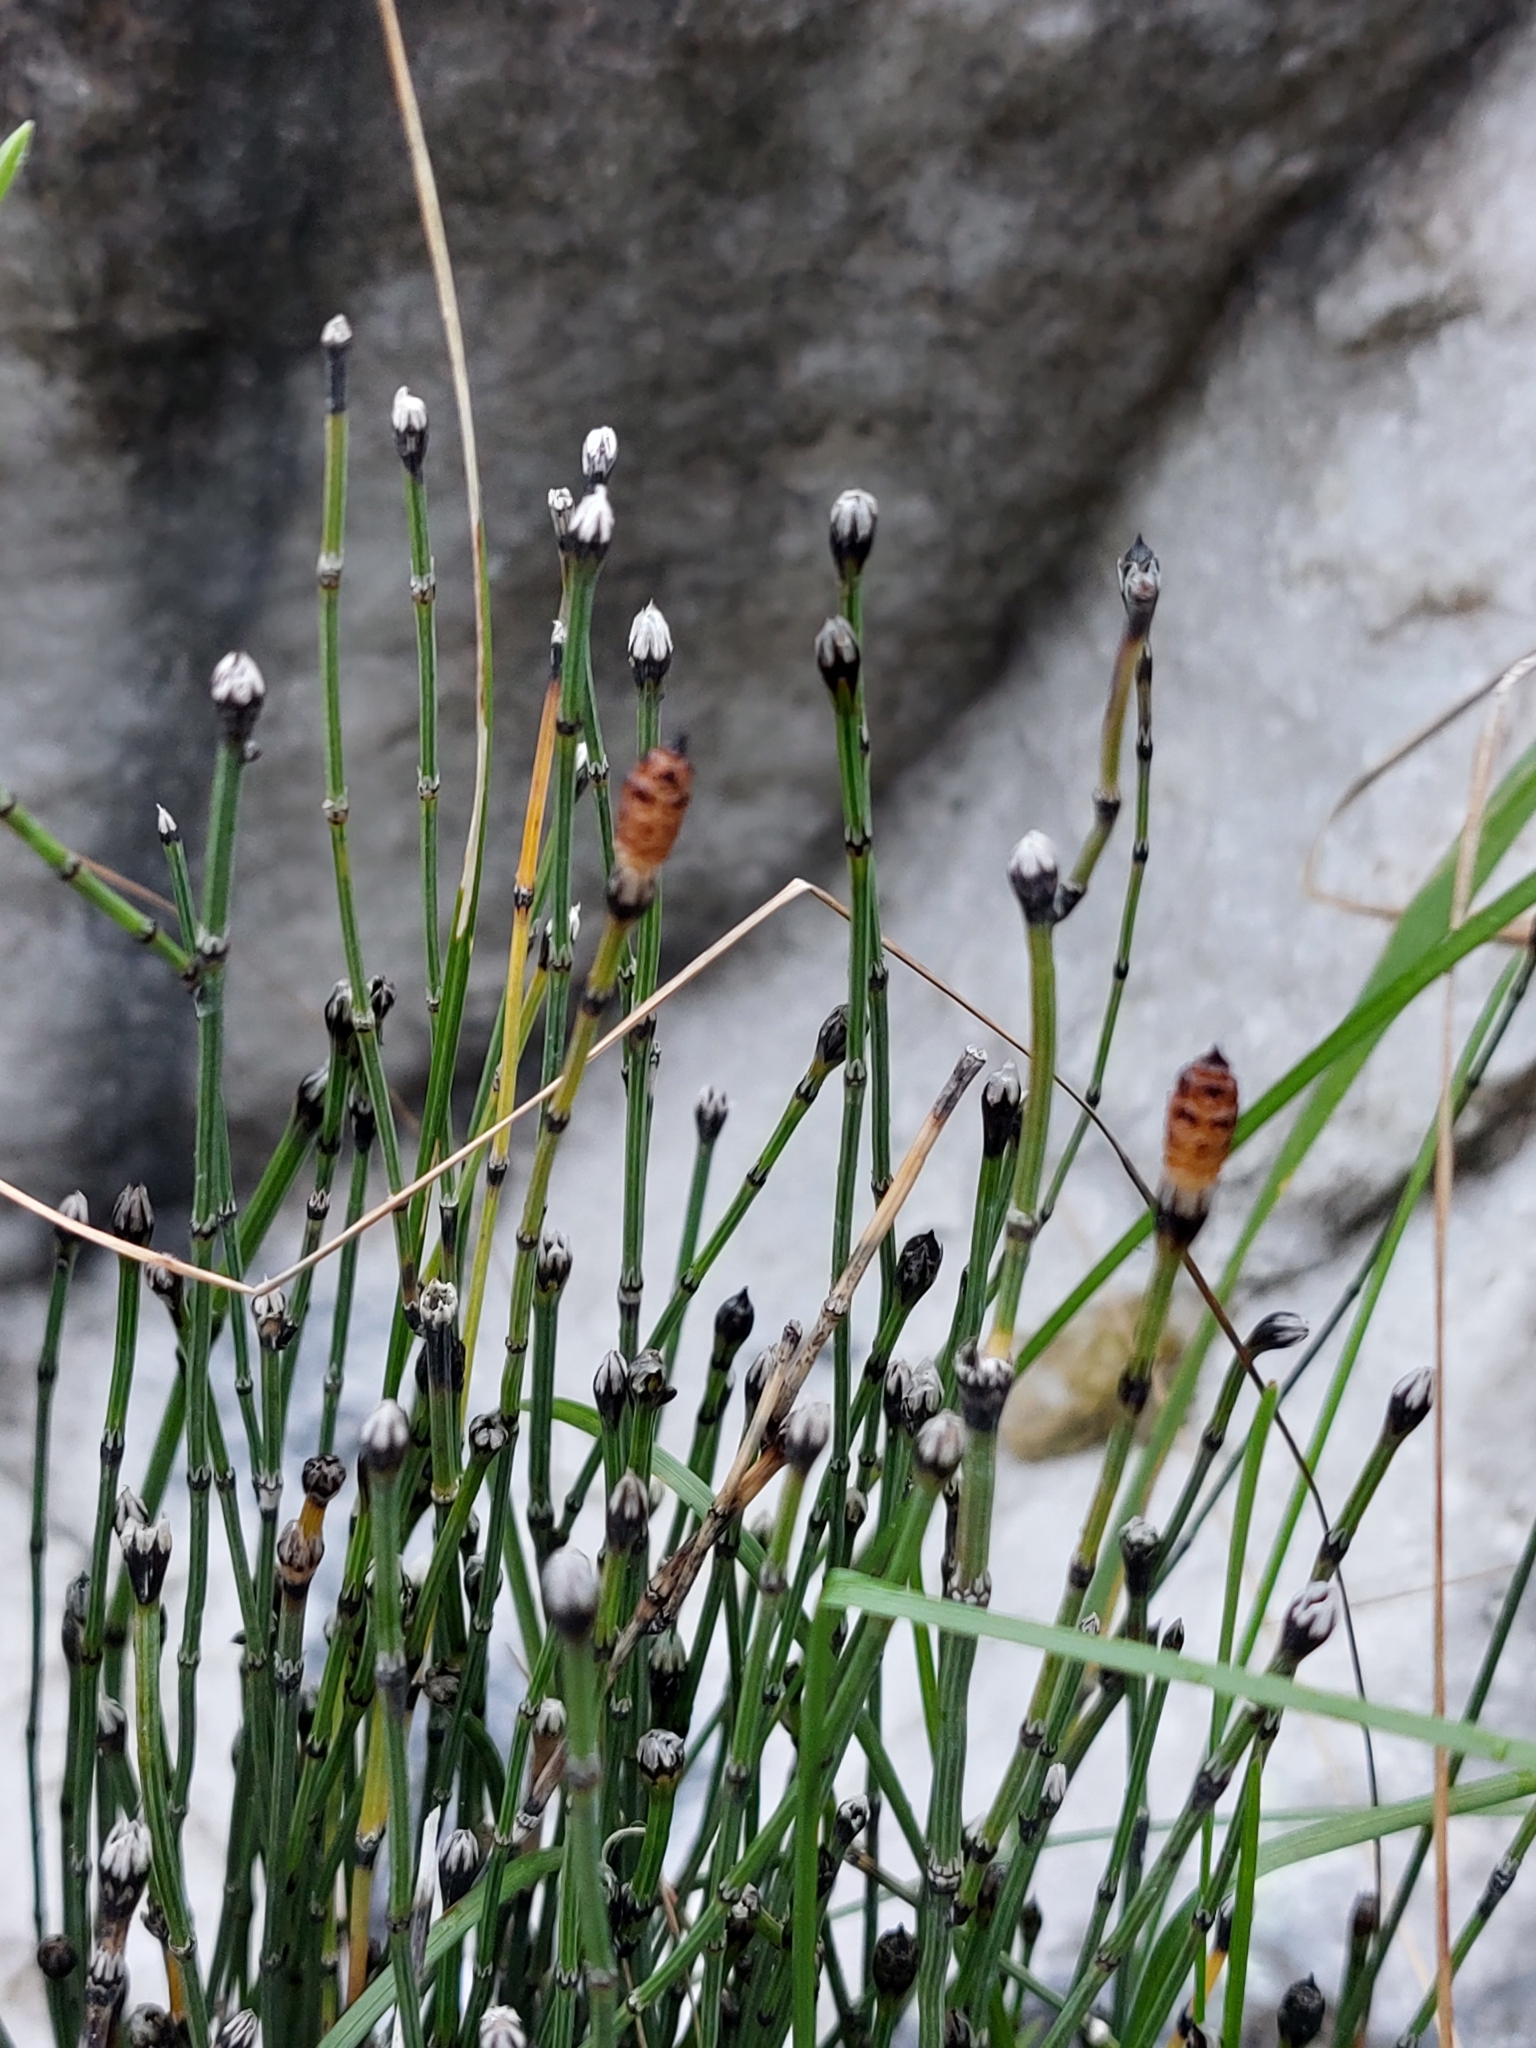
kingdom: Plantae
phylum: Tracheophyta
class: Polypodiopsida
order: Equisetales
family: Equisetaceae
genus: Equisetum
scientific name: Equisetum variegatum
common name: Variegated horsetail
